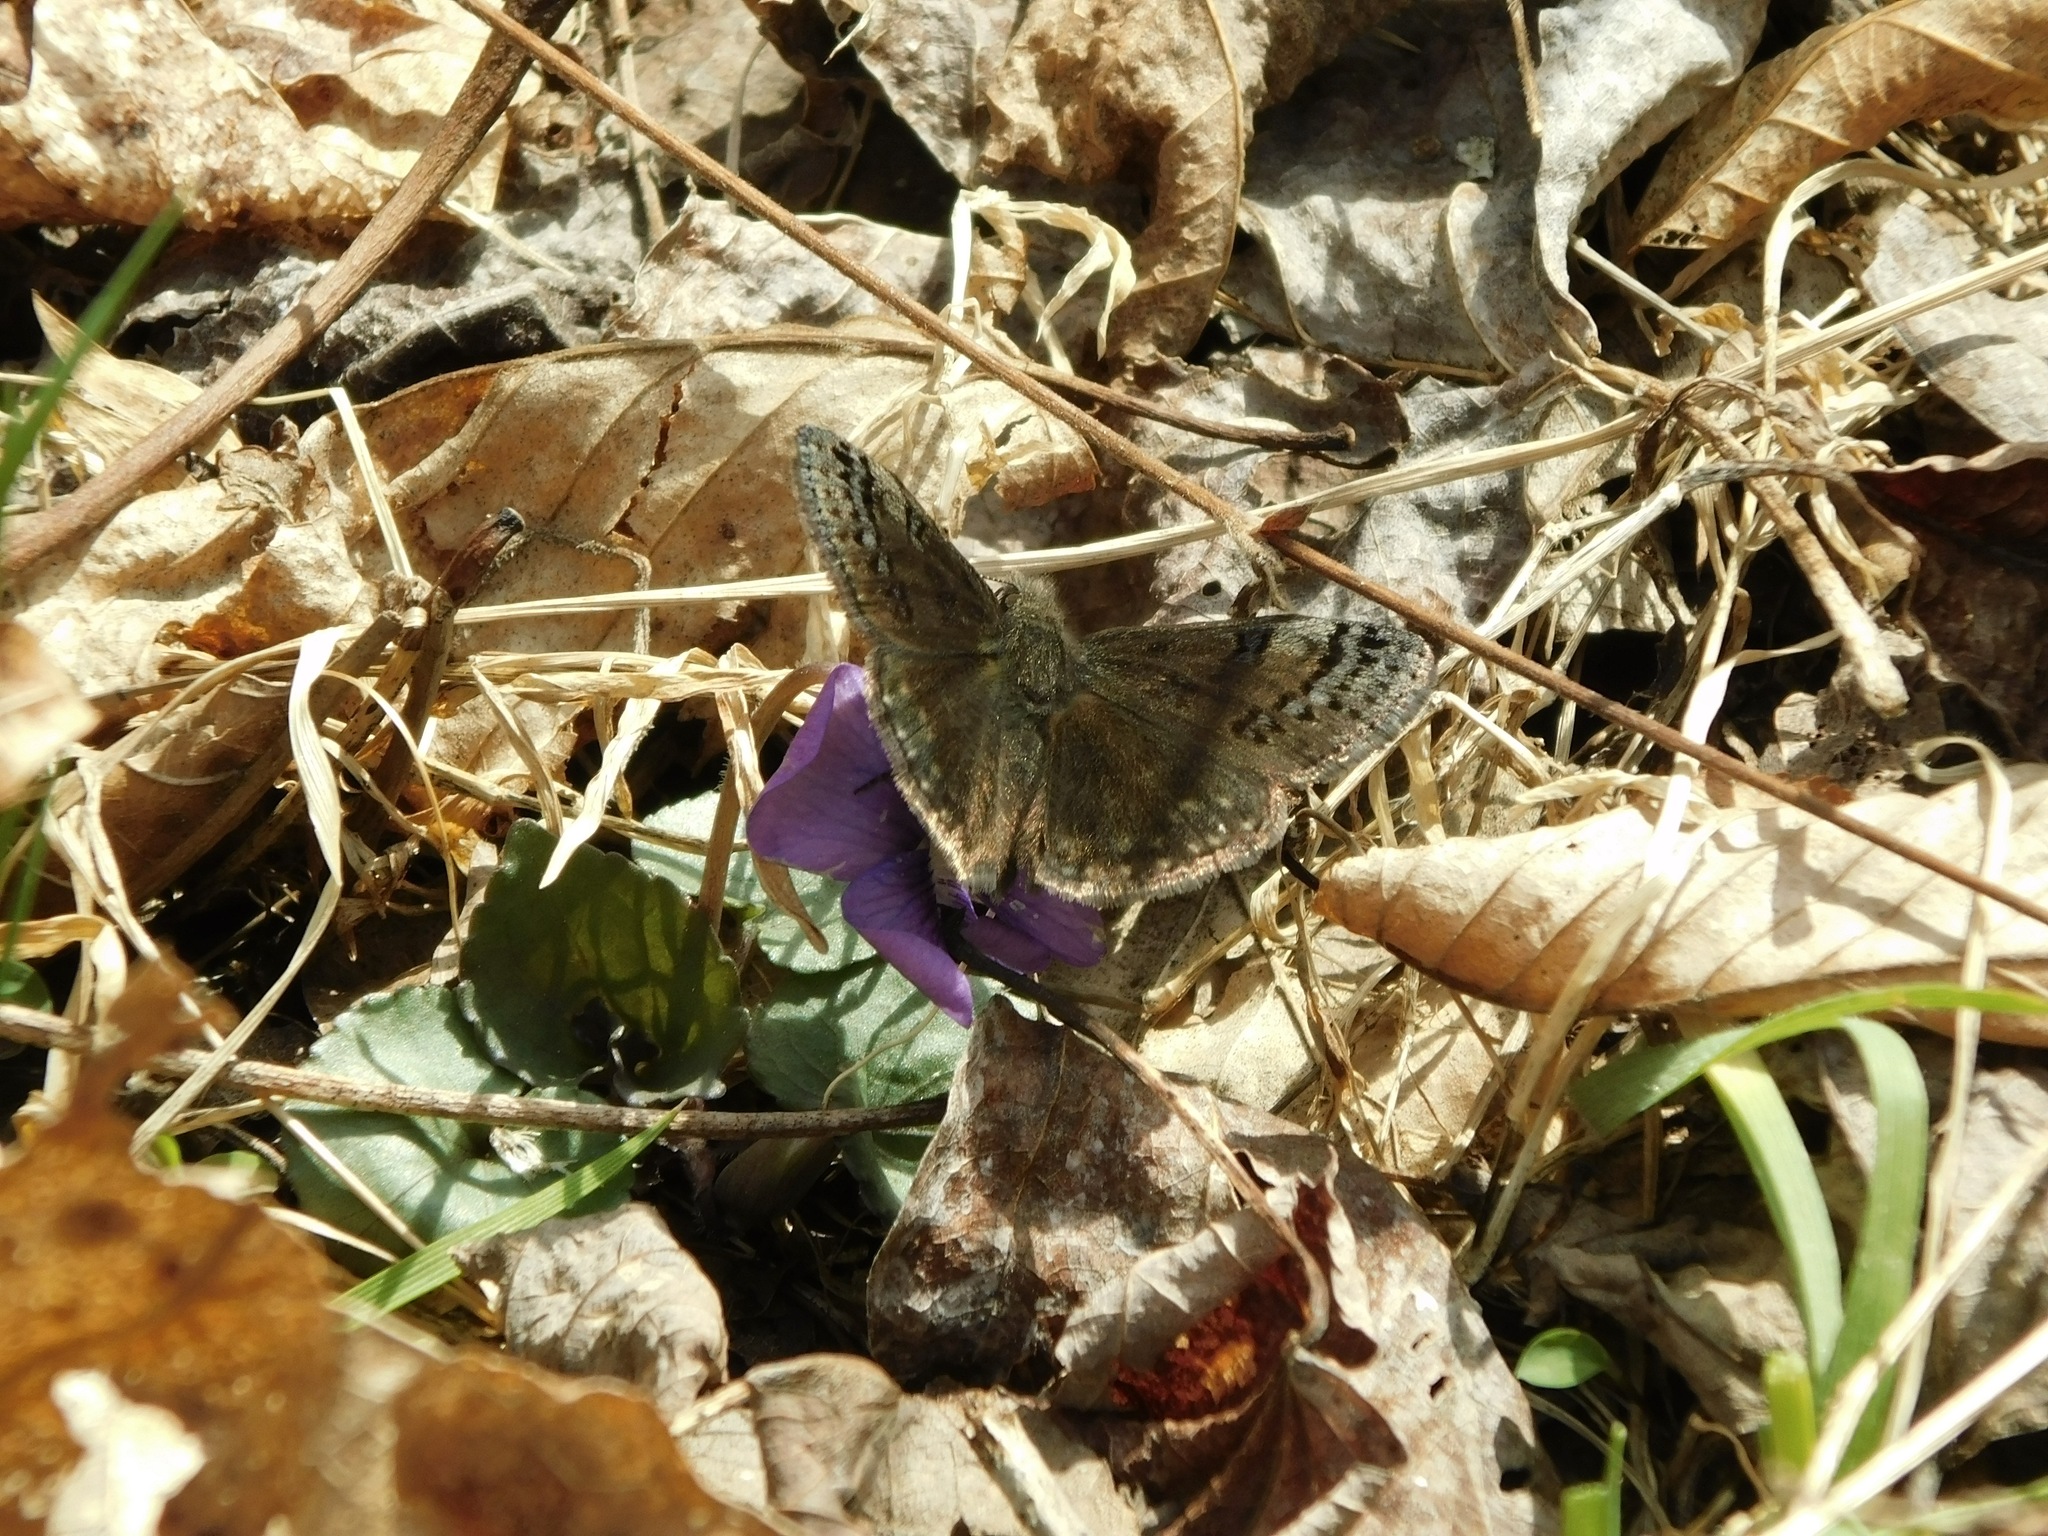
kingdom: Animalia
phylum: Arthropoda
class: Insecta
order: Lepidoptera
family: Hesperiidae
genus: Erynnis
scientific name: Erynnis brizo
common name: Sleepy duskywing
